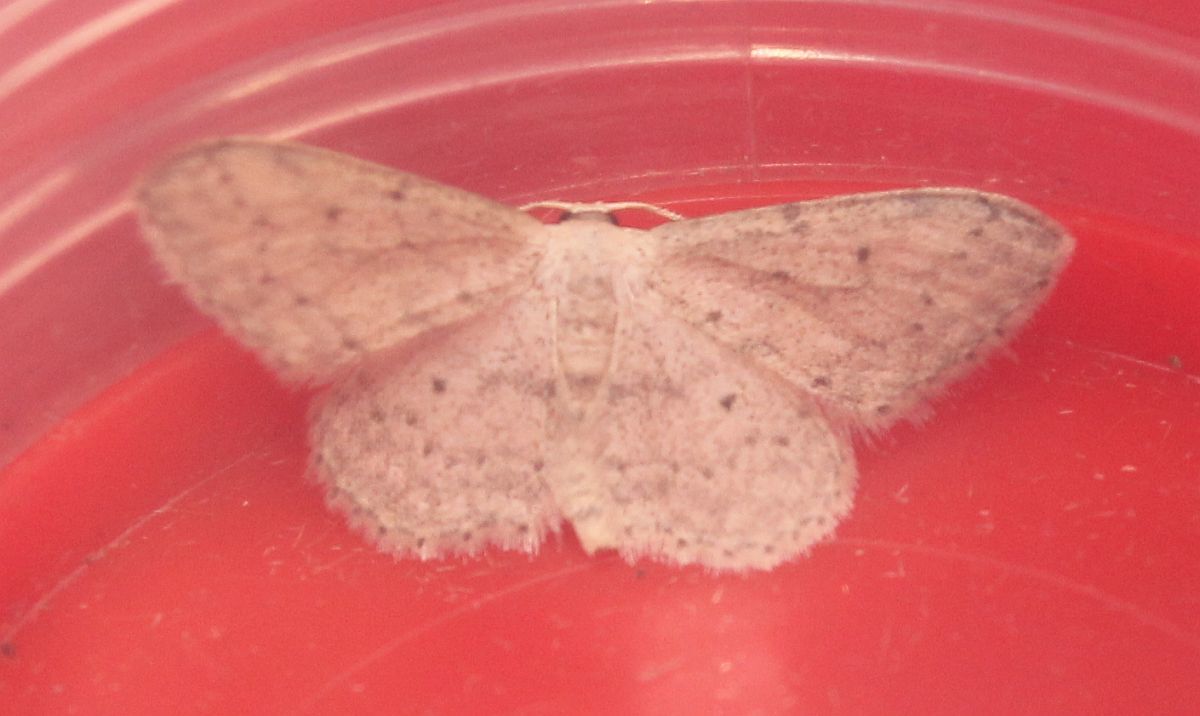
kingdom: Animalia
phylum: Arthropoda
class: Insecta
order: Lepidoptera
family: Geometridae
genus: Idaea
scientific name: Idaea seriata
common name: Small dusty wave
